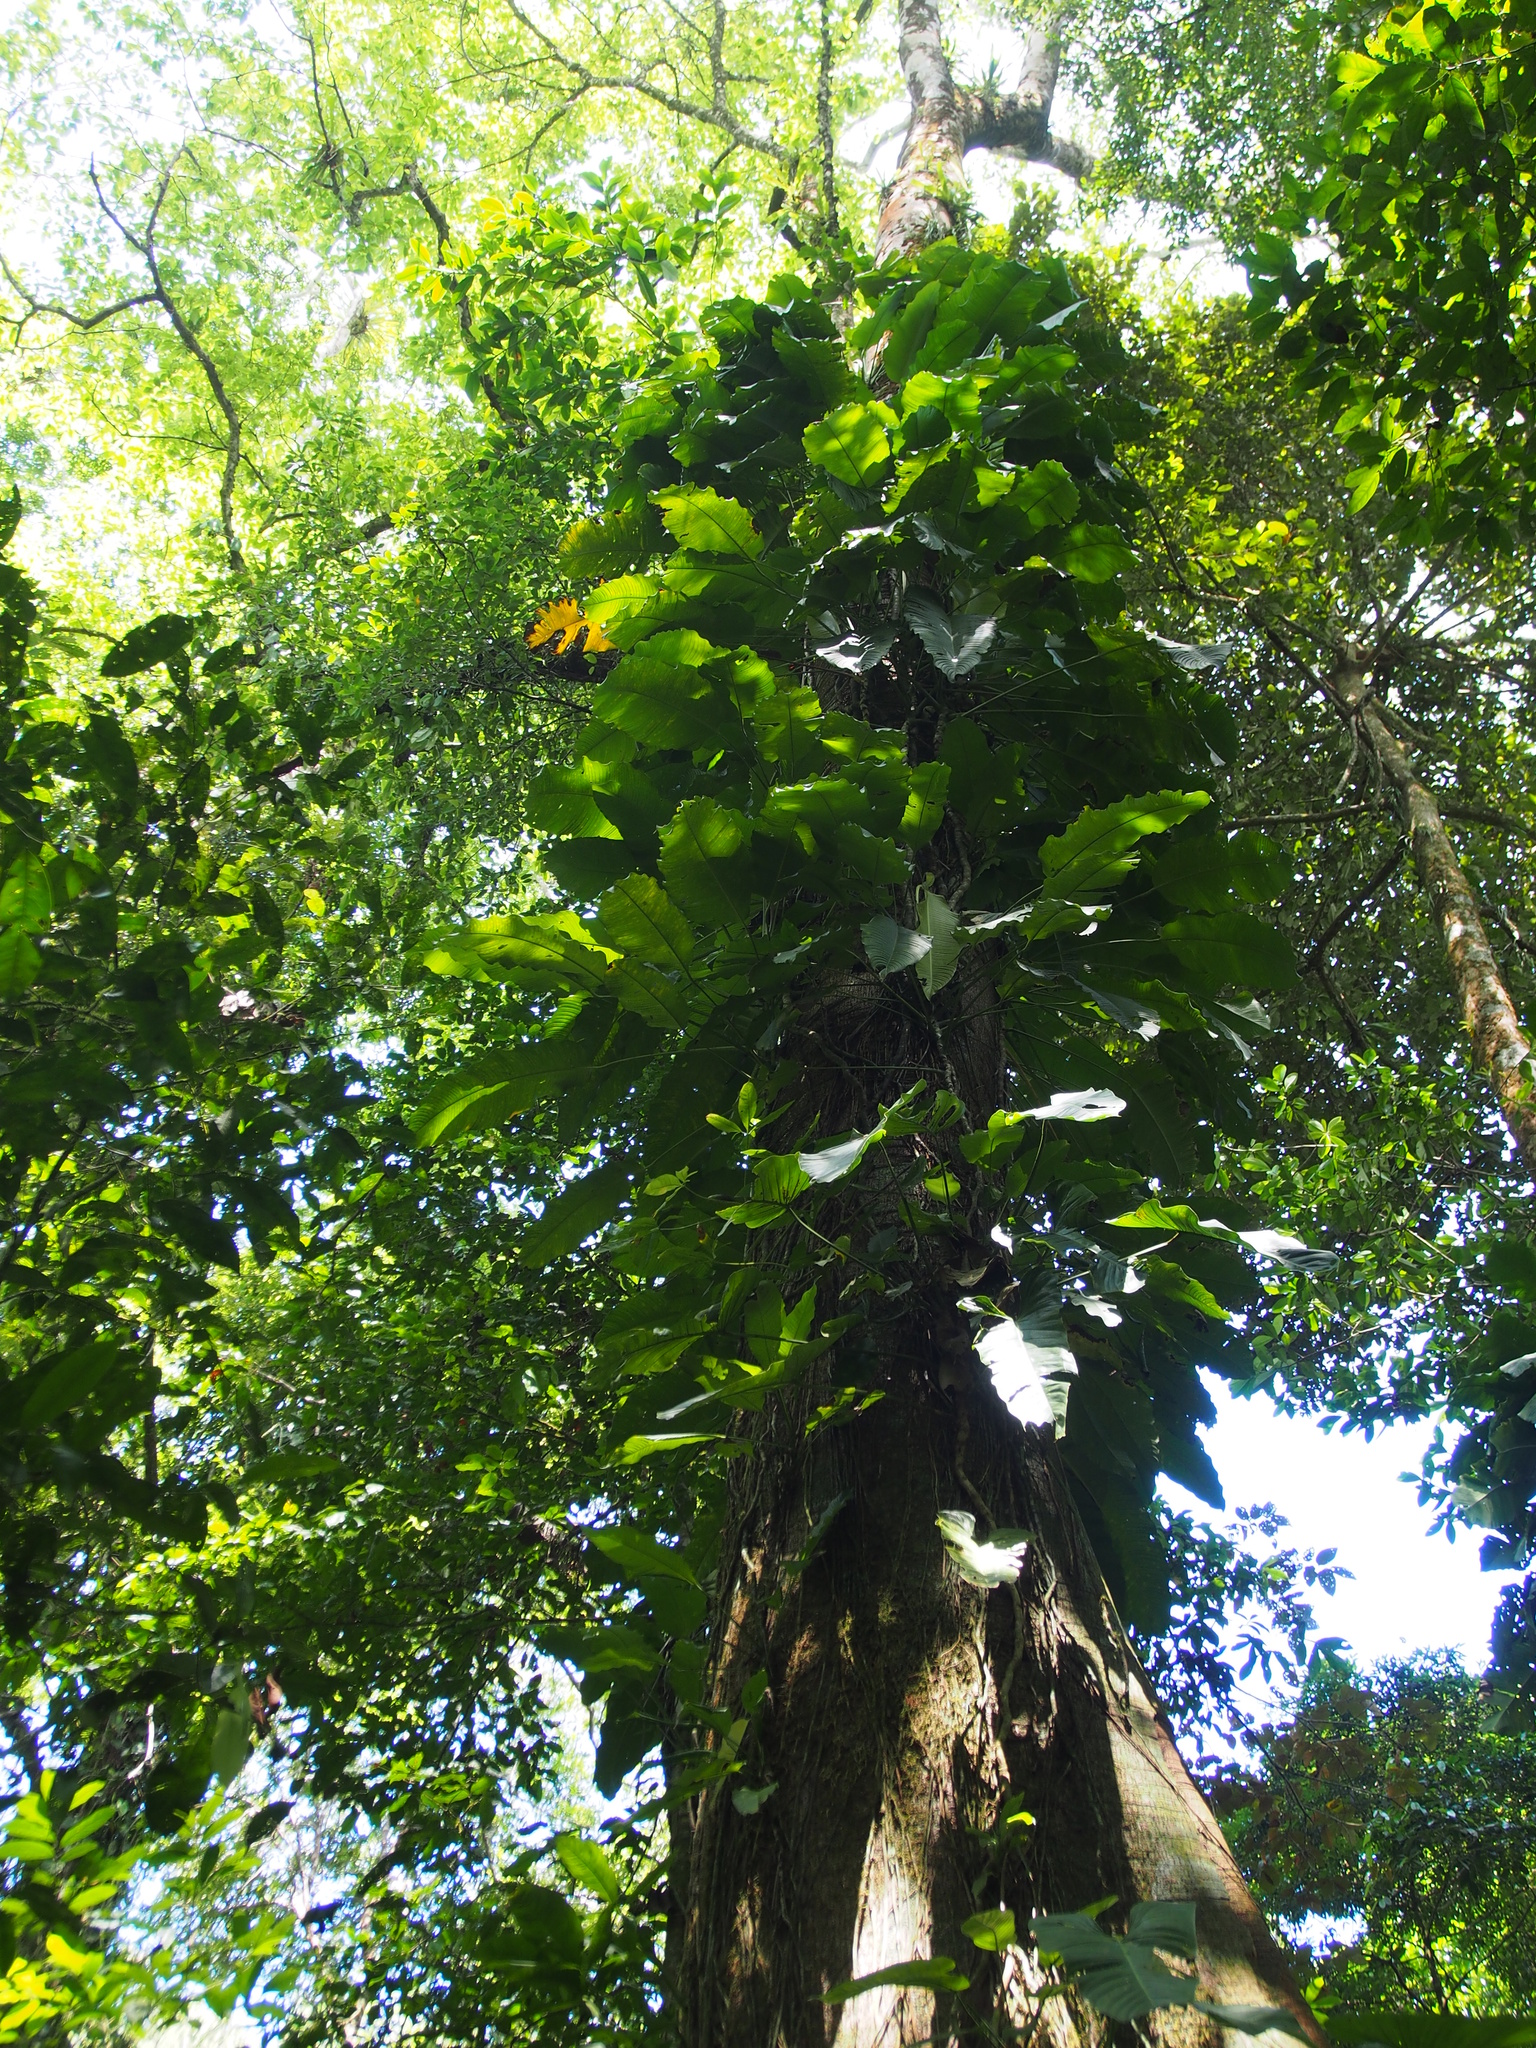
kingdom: Plantae
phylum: Tracheophyta
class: Liliopsida
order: Alismatales
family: Araceae
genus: Rhodospatha
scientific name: Rhodospatha wendlandii
